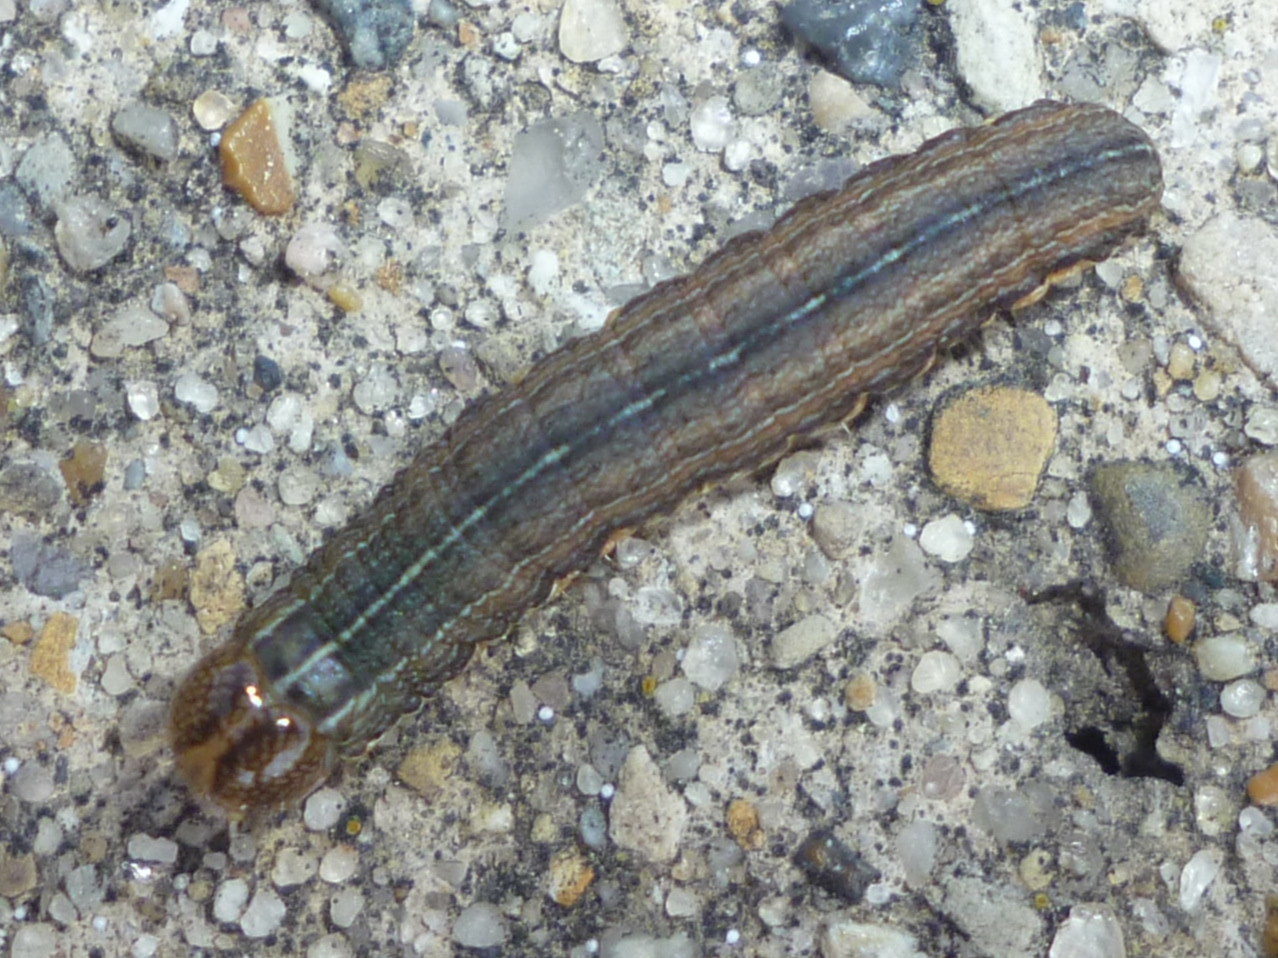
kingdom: Animalia
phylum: Arthropoda
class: Insecta
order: Lepidoptera
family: Noctuidae
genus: Mythimna
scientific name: Mythimna unipuncta
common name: White-speck
